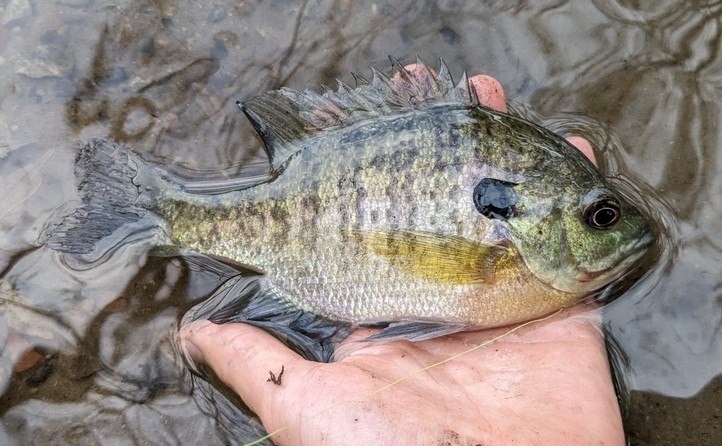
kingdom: Animalia
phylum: Chordata
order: Perciformes
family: Centrarchidae
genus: Lepomis
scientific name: Lepomis macrochirus
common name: Bluegill
